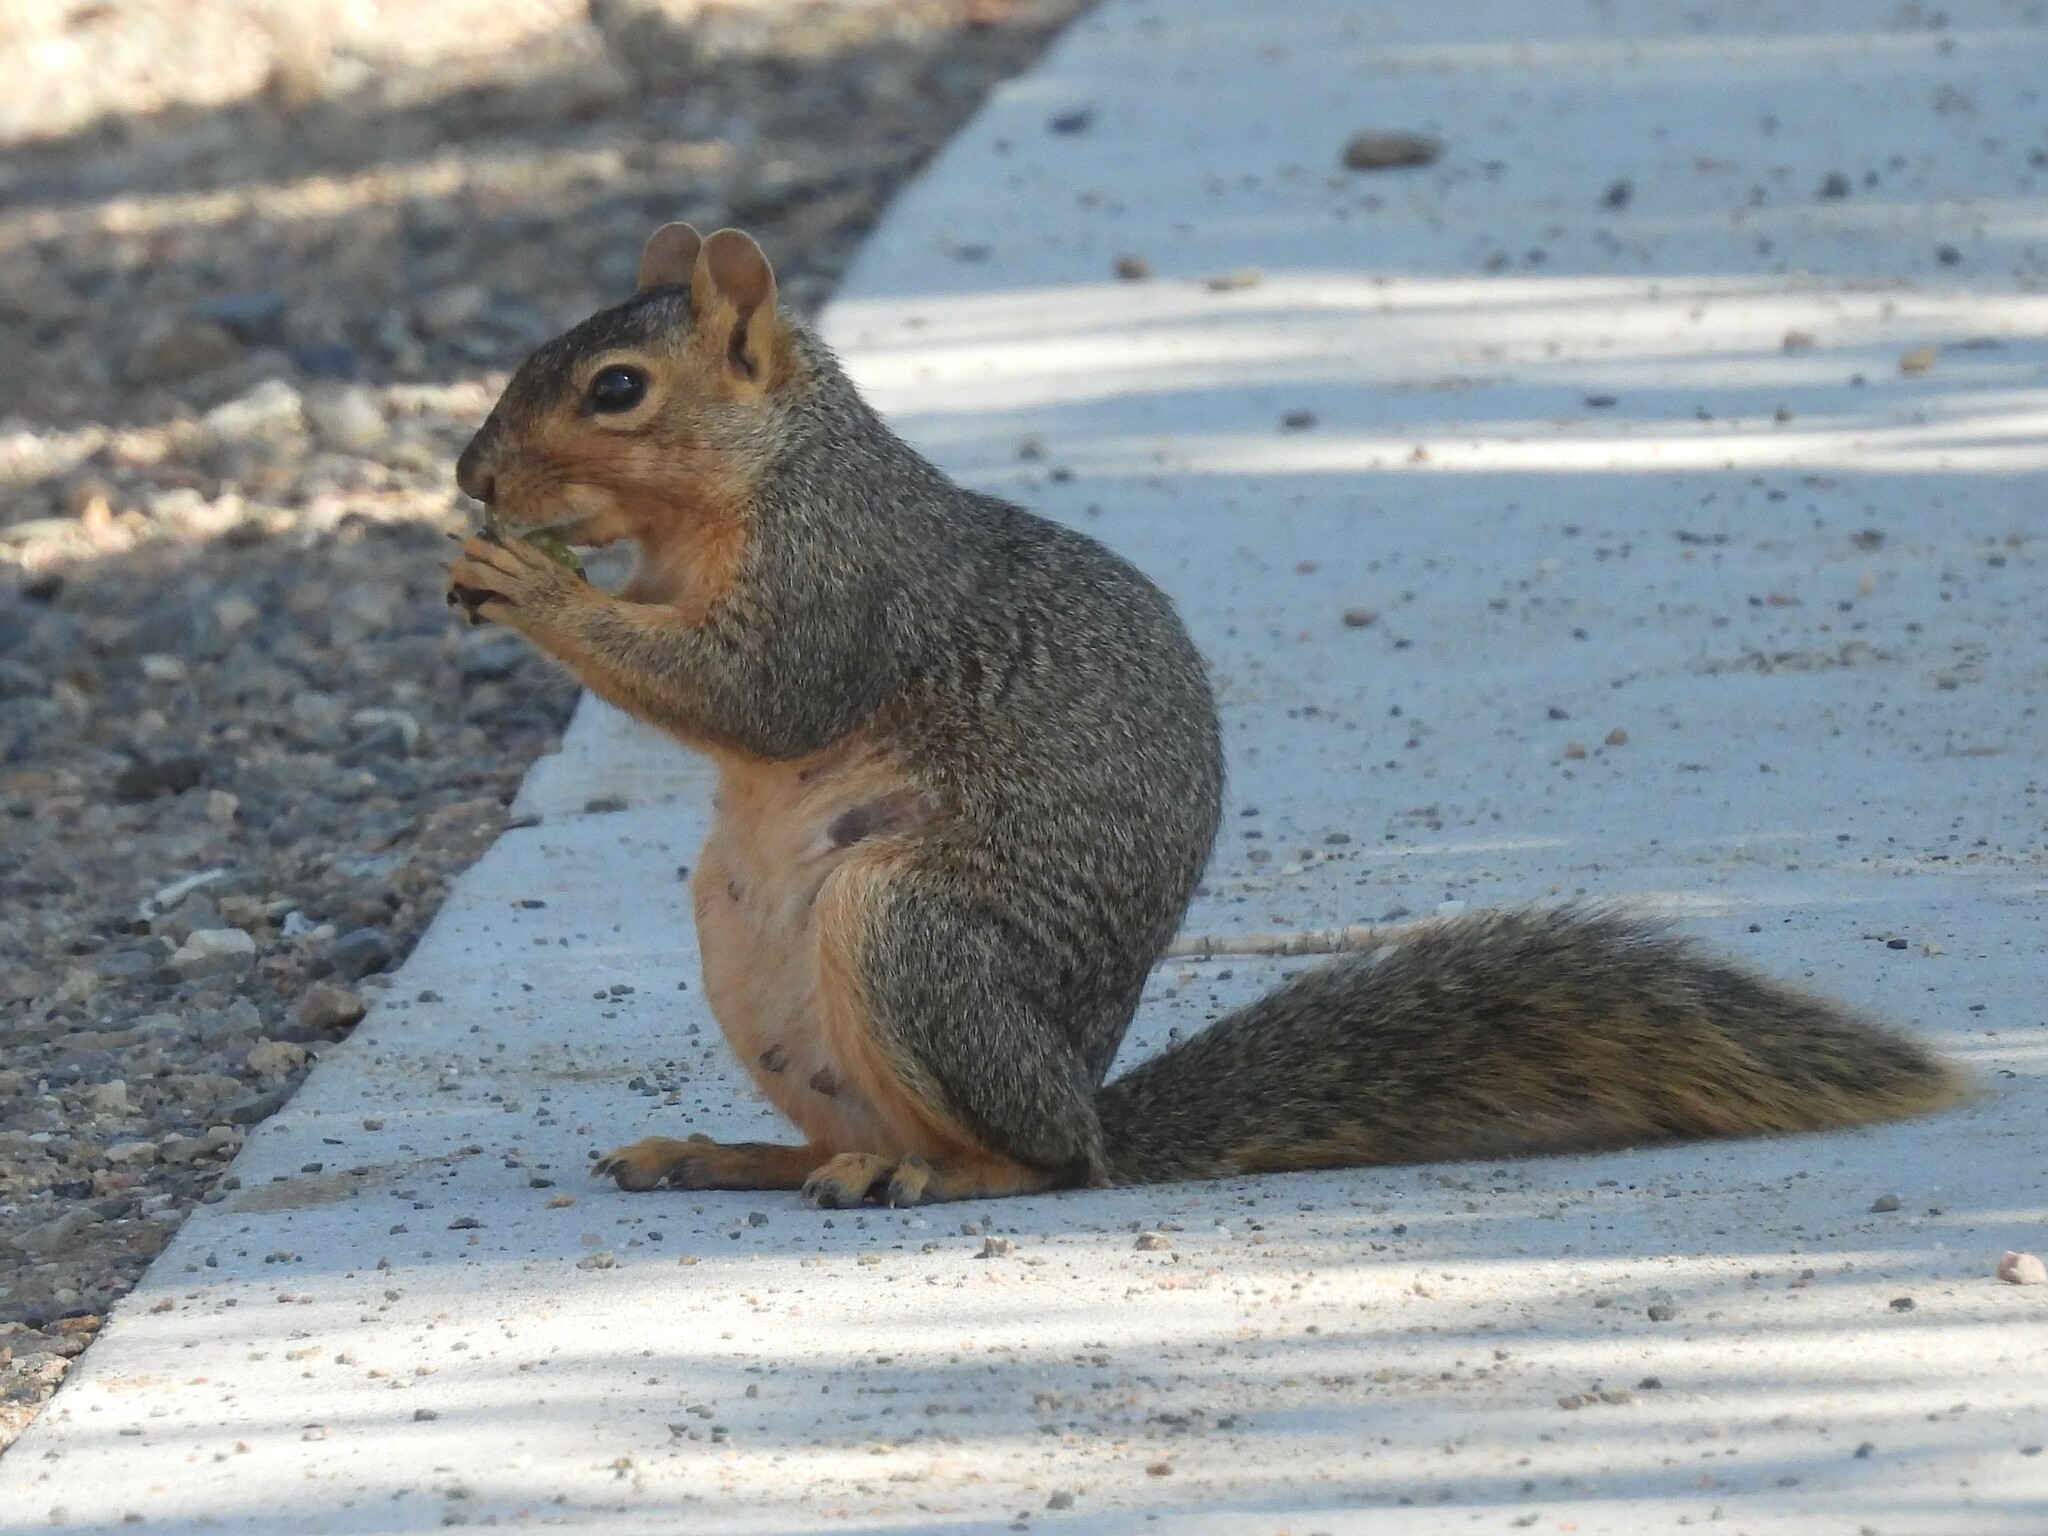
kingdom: Animalia
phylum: Chordata
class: Mammalia
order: Rodentia
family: Sciuridae
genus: Sciurus
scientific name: Sciurus niger
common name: Fox squirrel
